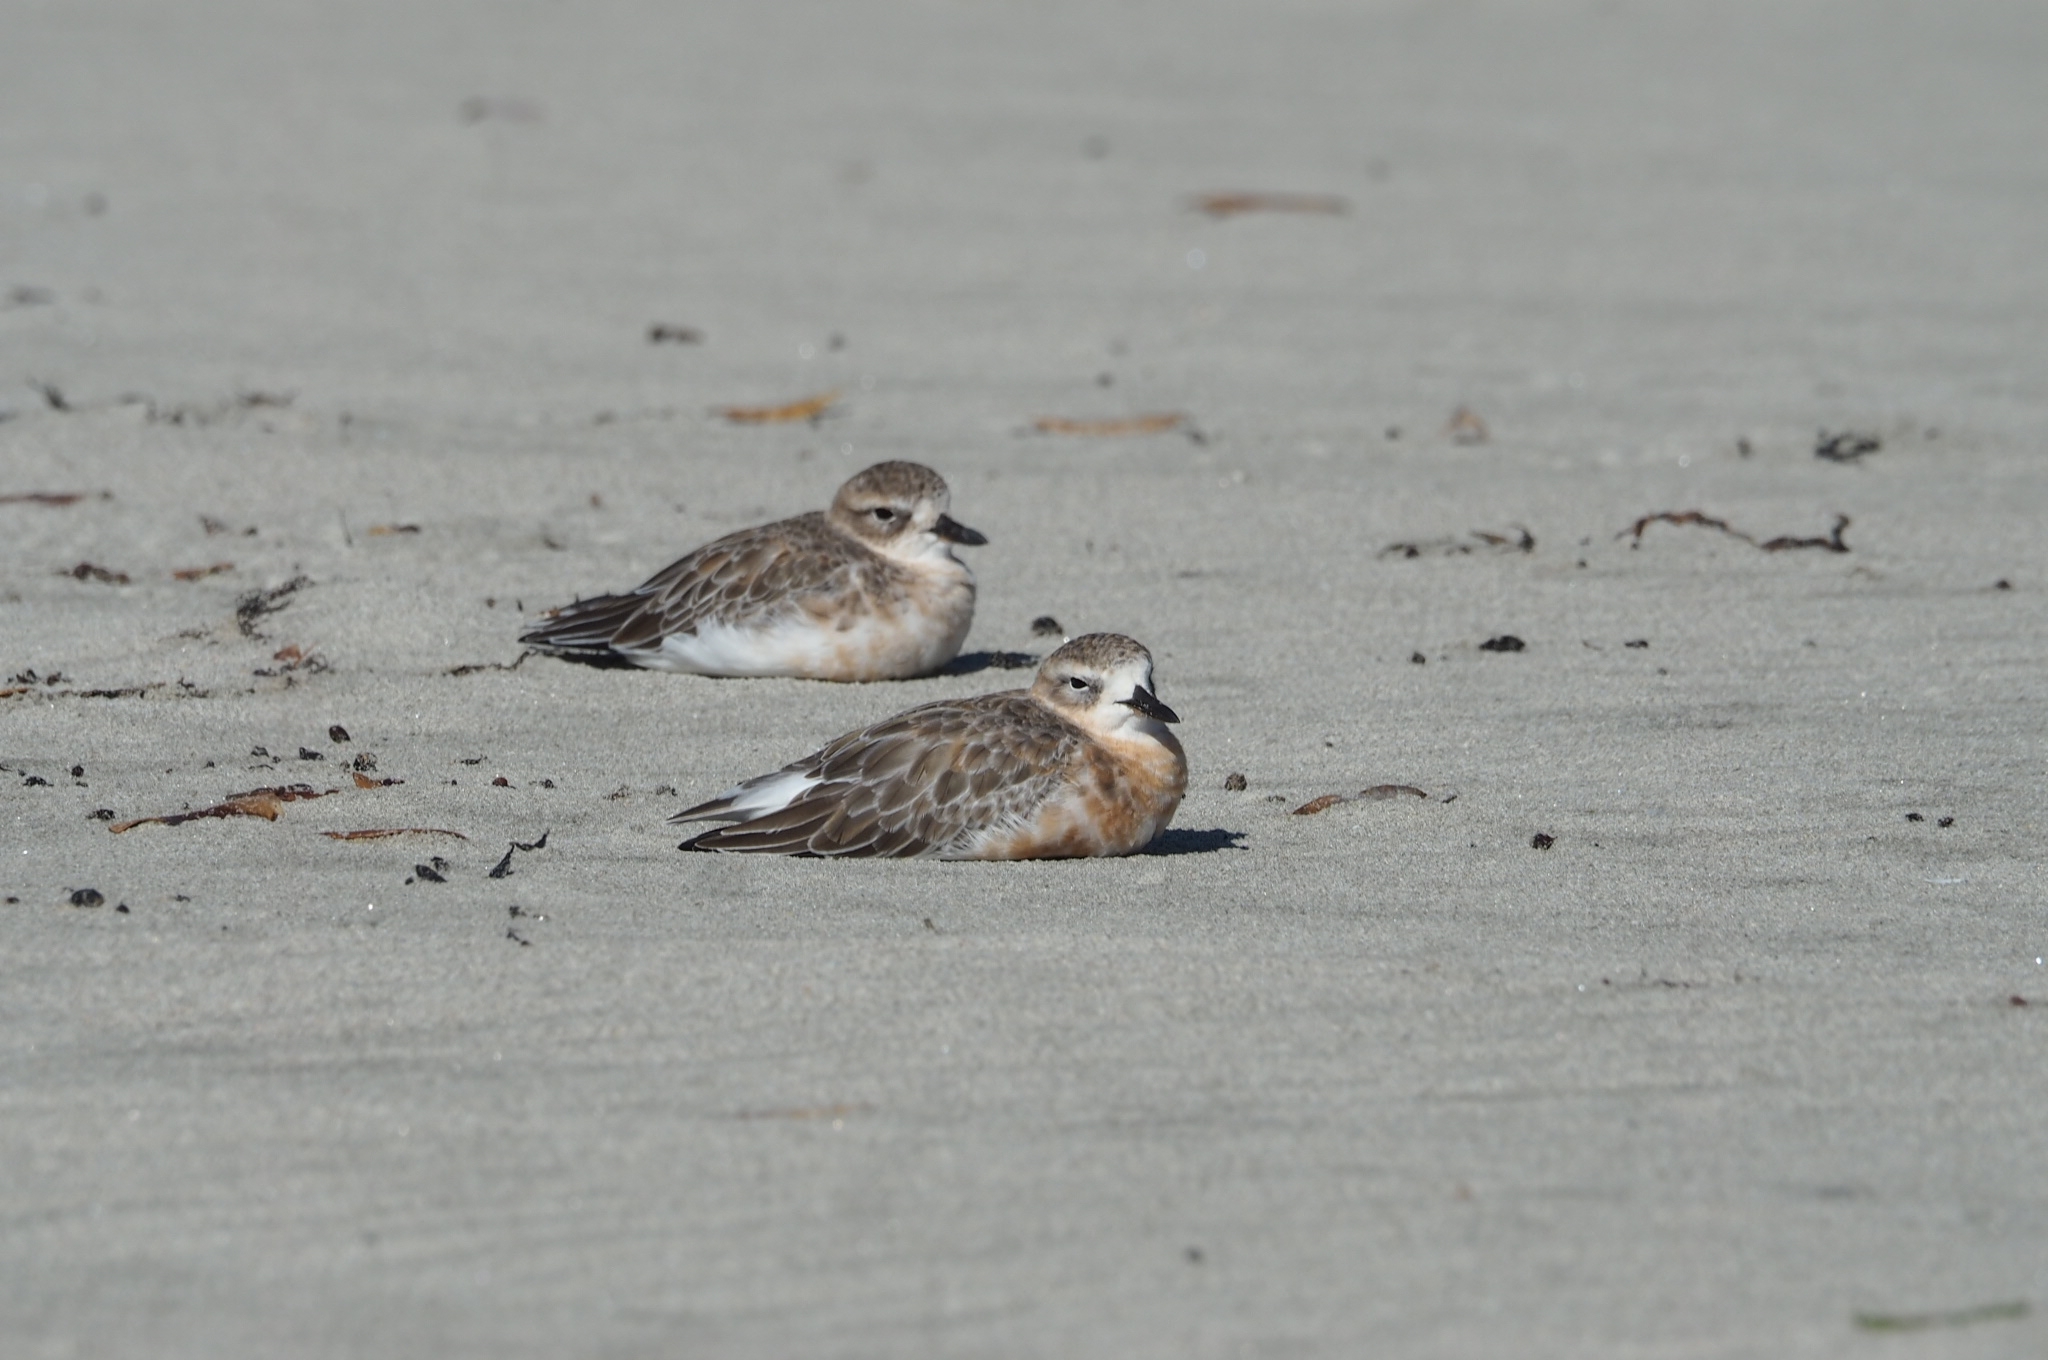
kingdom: Animalia
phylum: Chordata
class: Aves
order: Charadriiformes
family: Charadriidae
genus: Anarhynchus
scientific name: Anarhynchus
